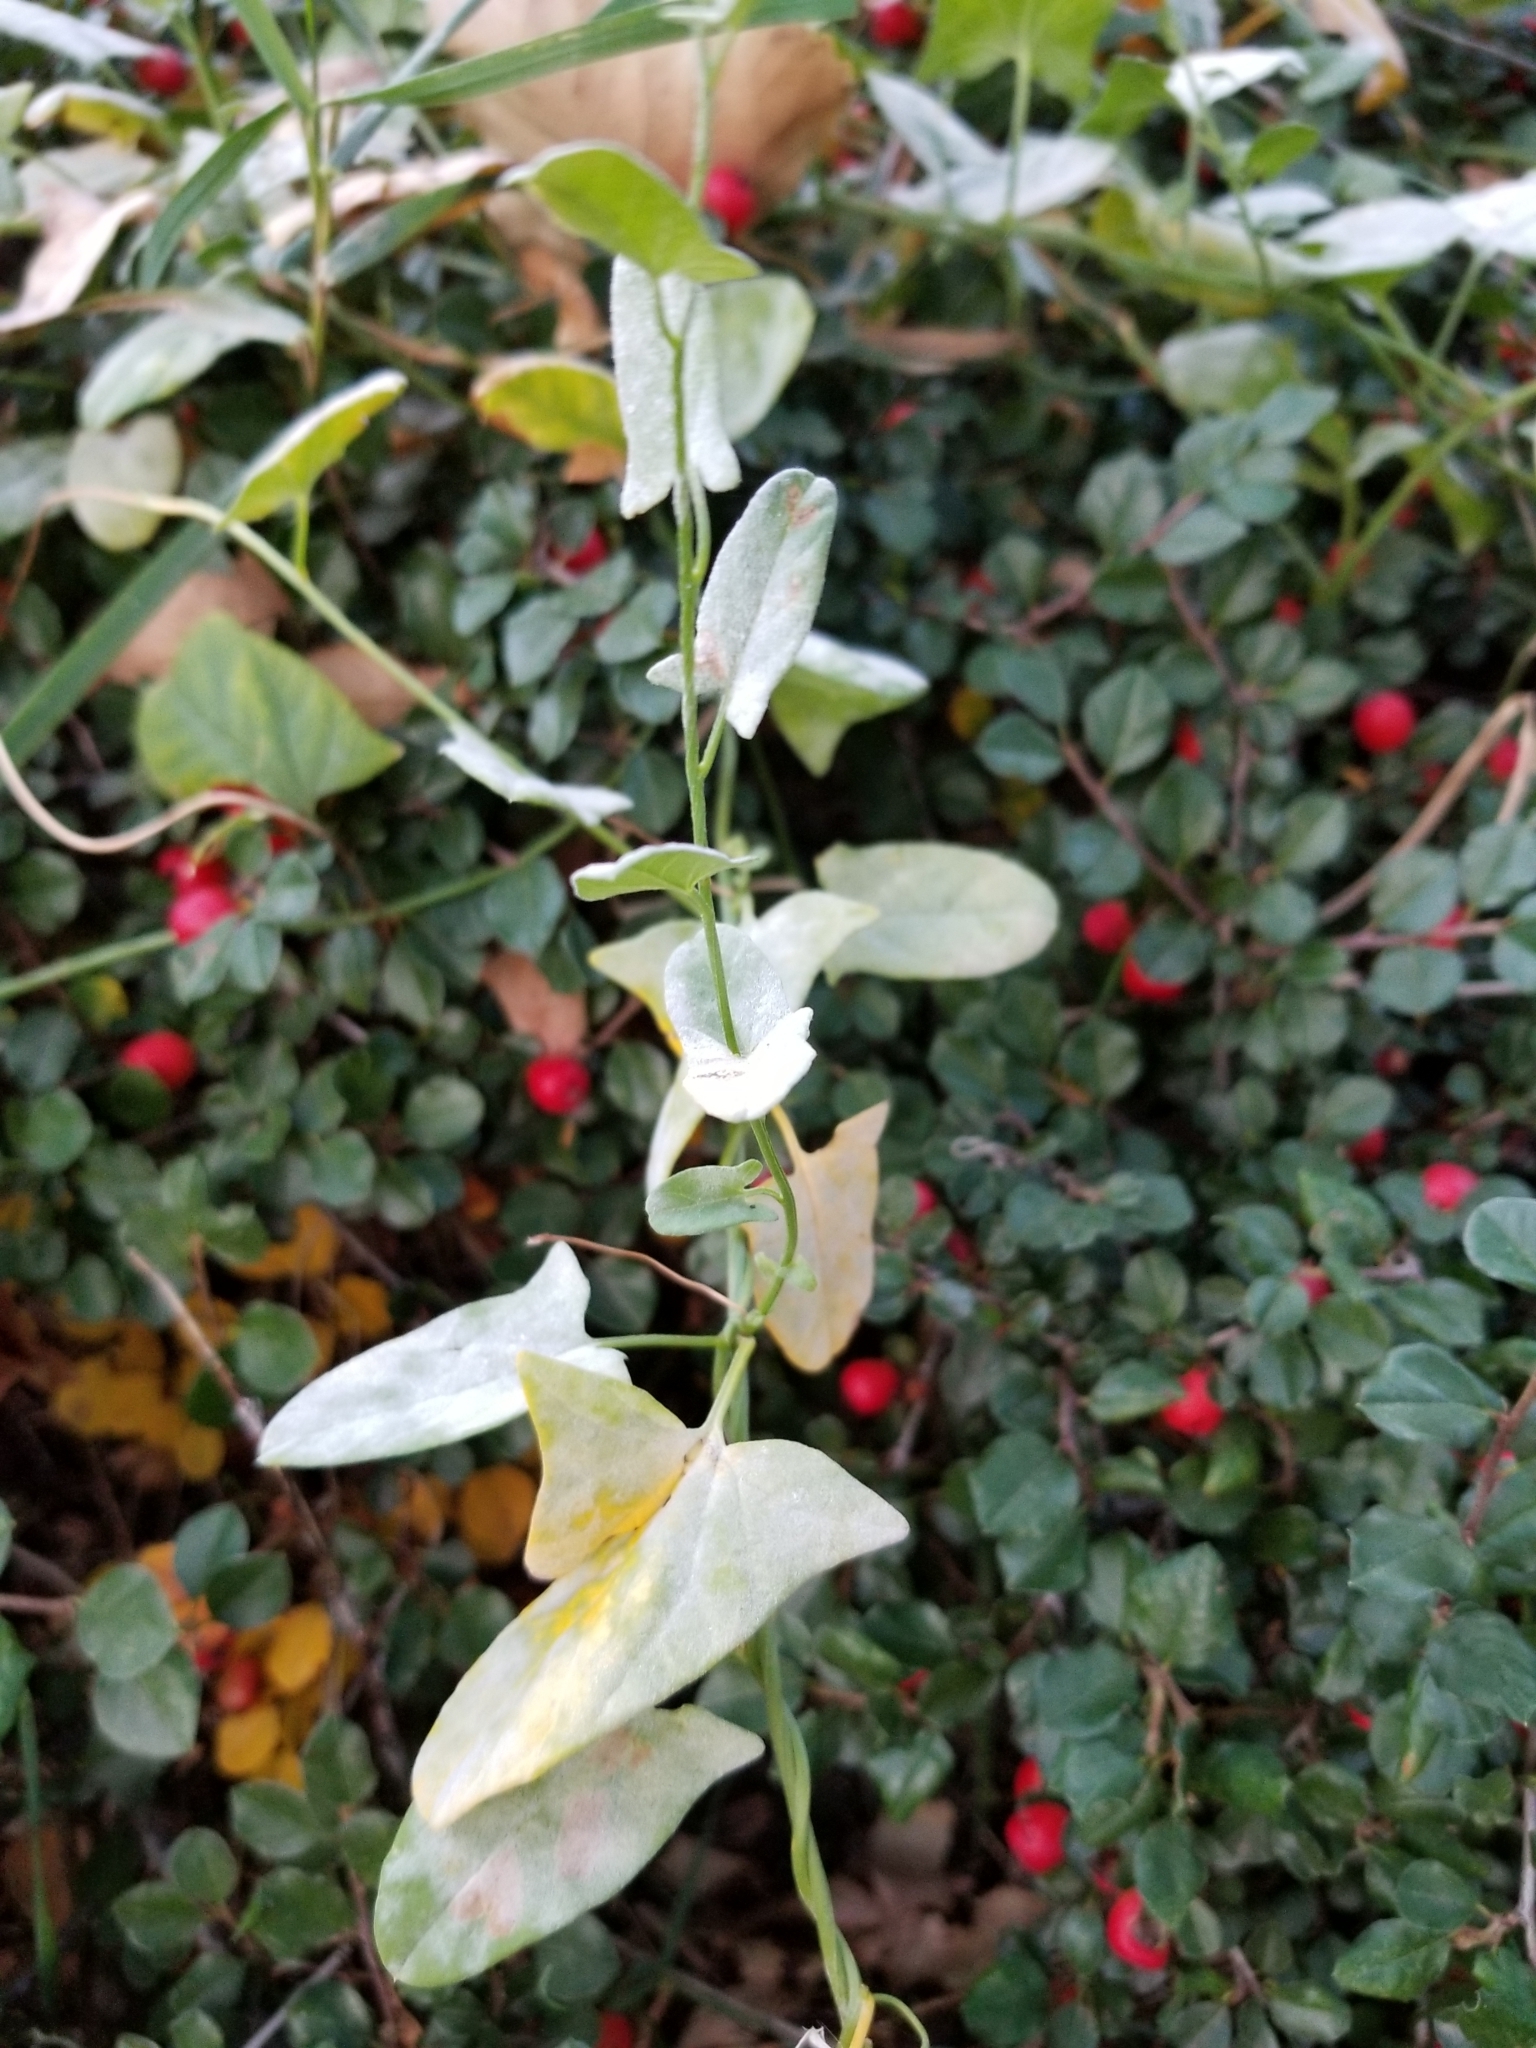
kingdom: Plantae
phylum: Tracheophyta
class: Magnoliopsida
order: Solanales
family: Convolvulaceae
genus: Convolvulus
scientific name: Convolvulus arvensis
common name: Field bindweed
